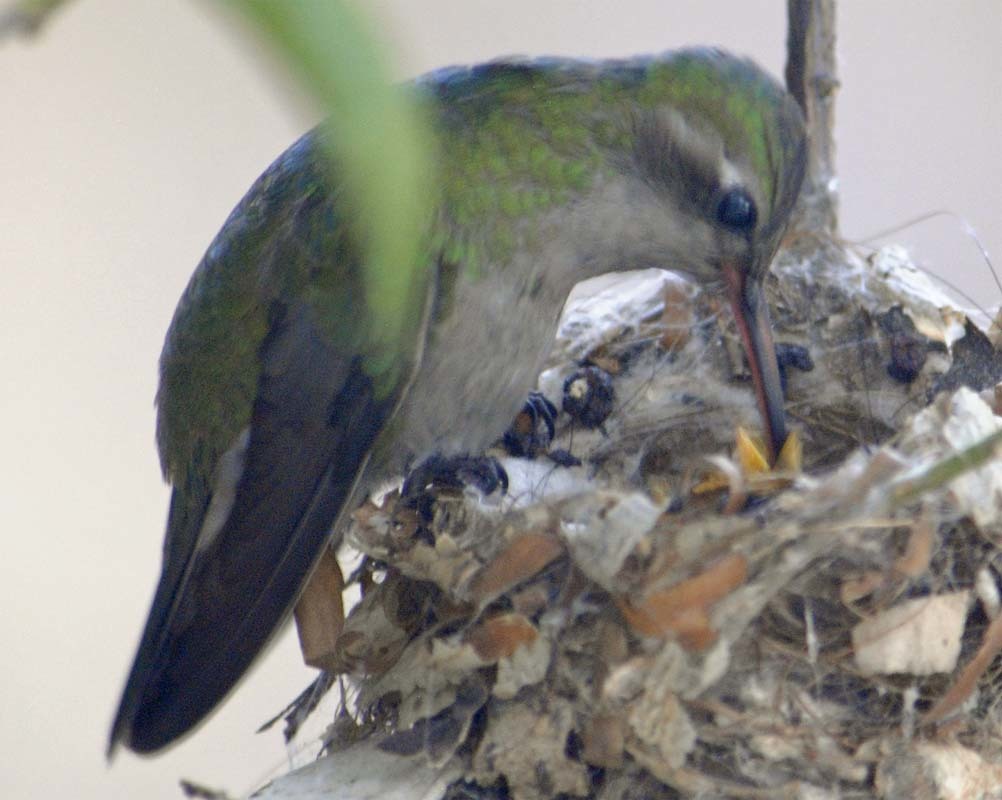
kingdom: Animalia
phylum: Chordata
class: Aves
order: Apodiformes
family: Trochilidae
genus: Cynanthus
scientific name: Cynanthus latirostris
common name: Broad-billed hummingbird
